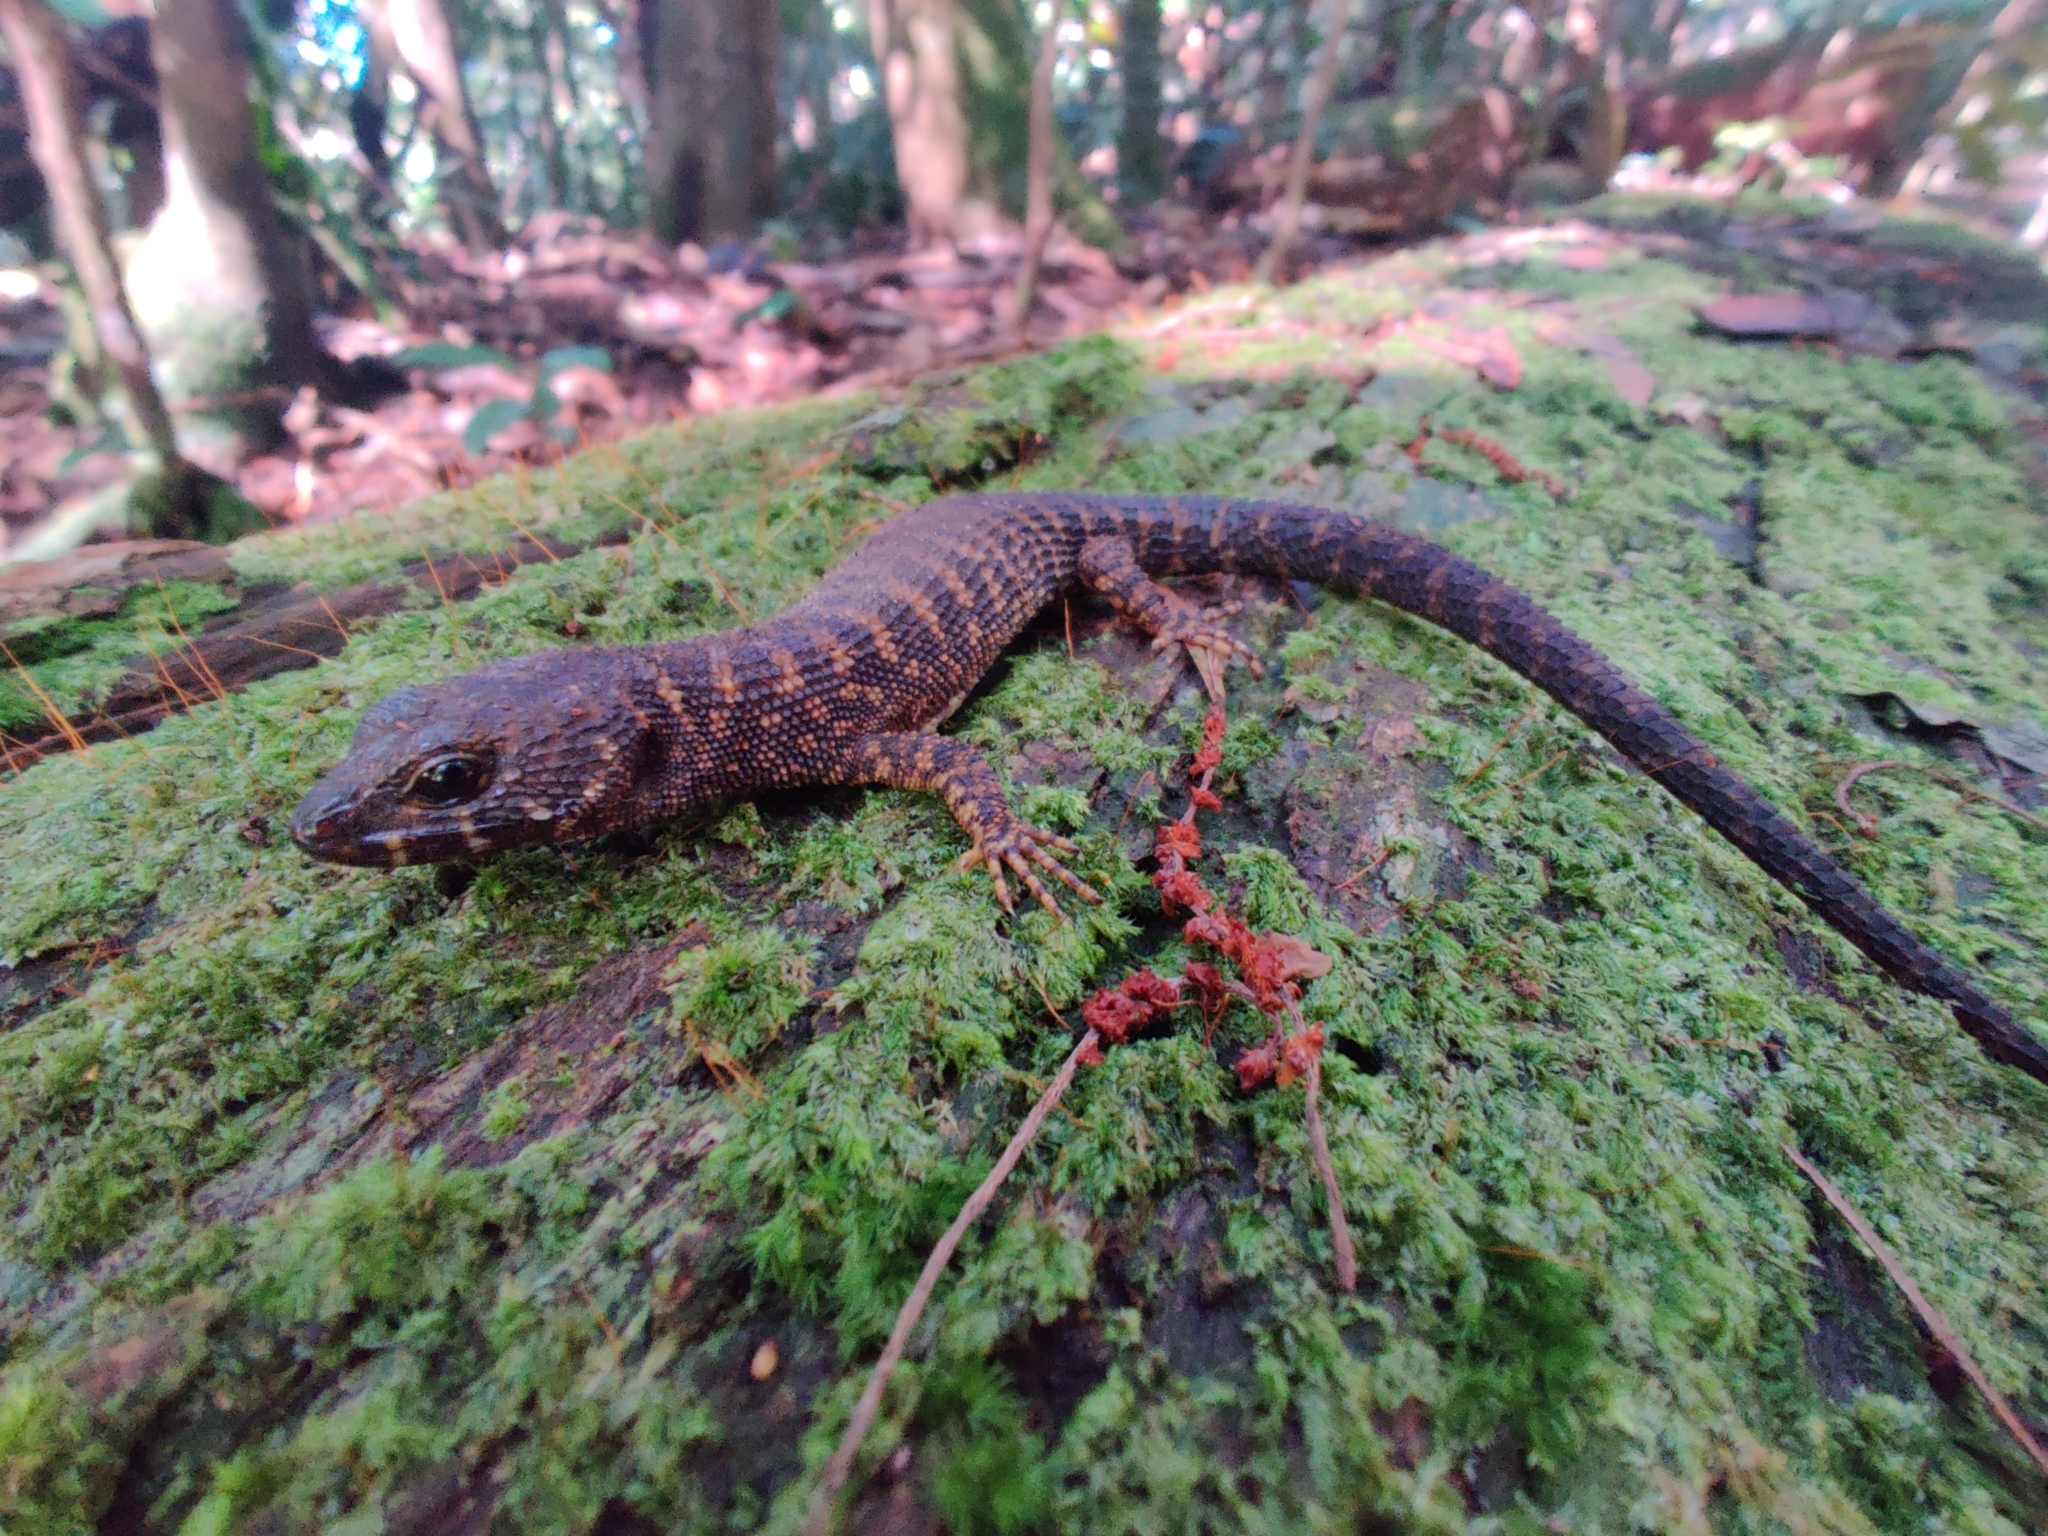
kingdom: Animalia
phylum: Chordata
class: Squamata
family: Scincidae
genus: Gnypetoscincus
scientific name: Gnypetoscincus queenslandiae
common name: Prickly forest skink
